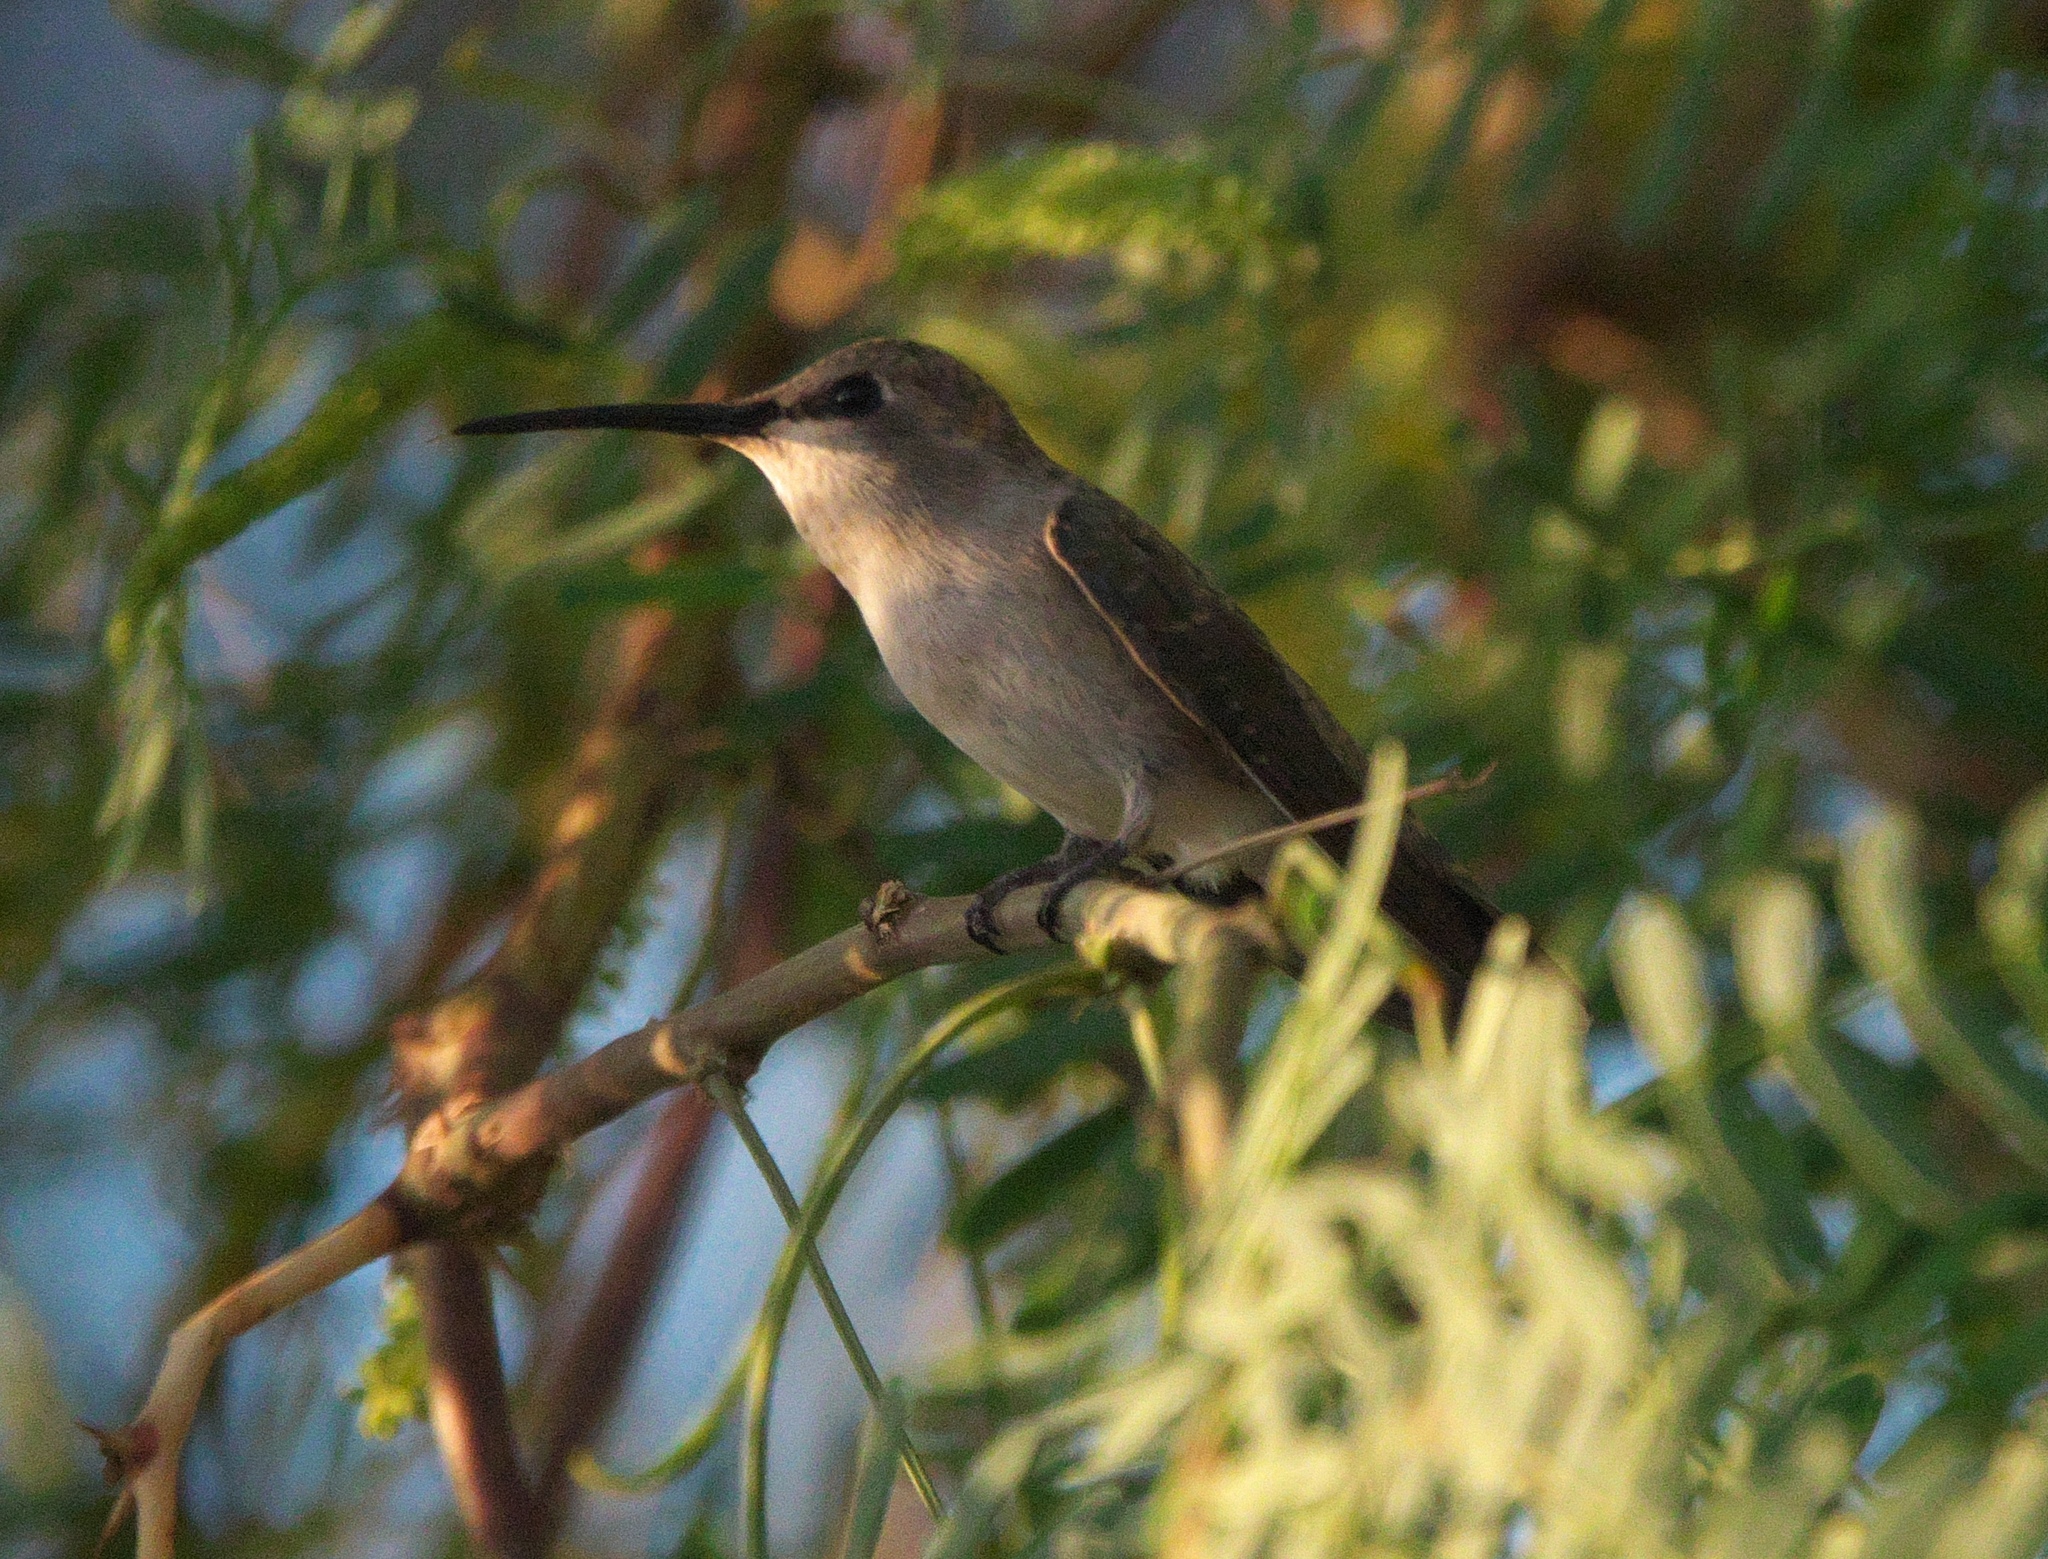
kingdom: Animalia
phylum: Chordata
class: Aves
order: Apodiformes
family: Trochilidae
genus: Archilochus
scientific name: Archilochus alexandri
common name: Black-chinned hummingbird
